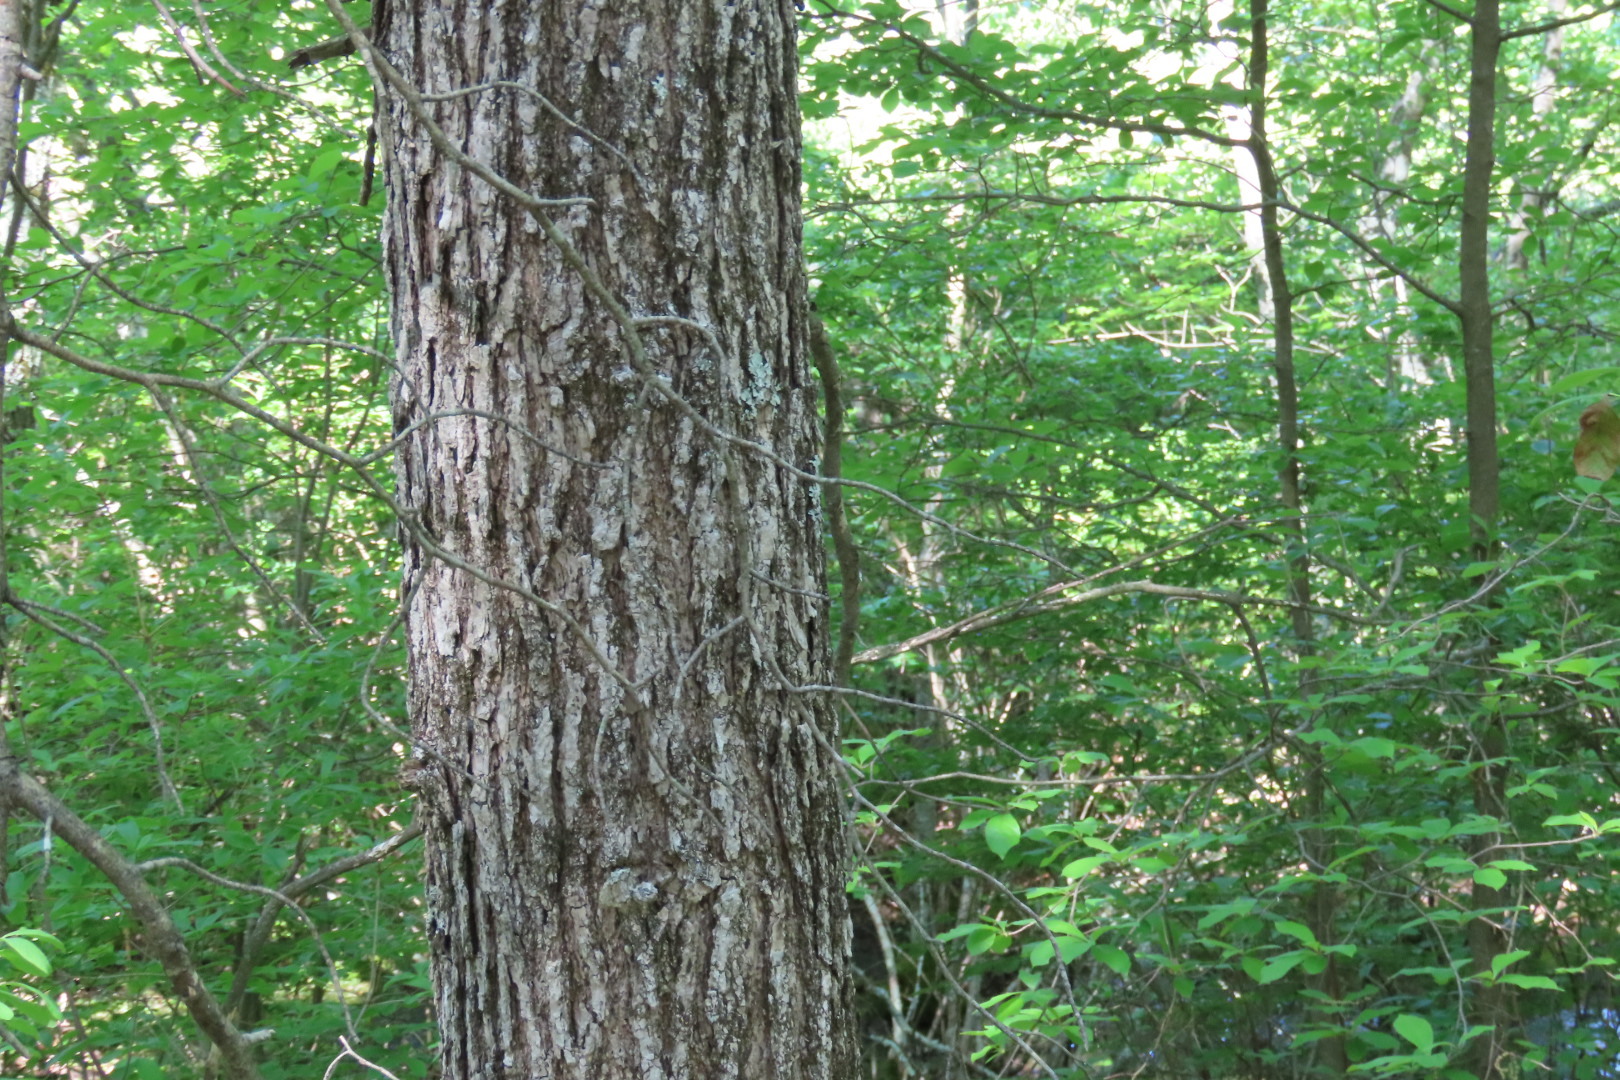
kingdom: Plantae
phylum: Tracheophyta
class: Magnoliopsida
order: Cornales
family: Nyssaceae
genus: Nyssa
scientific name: Nyssa sylvatica
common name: Black tupelo
